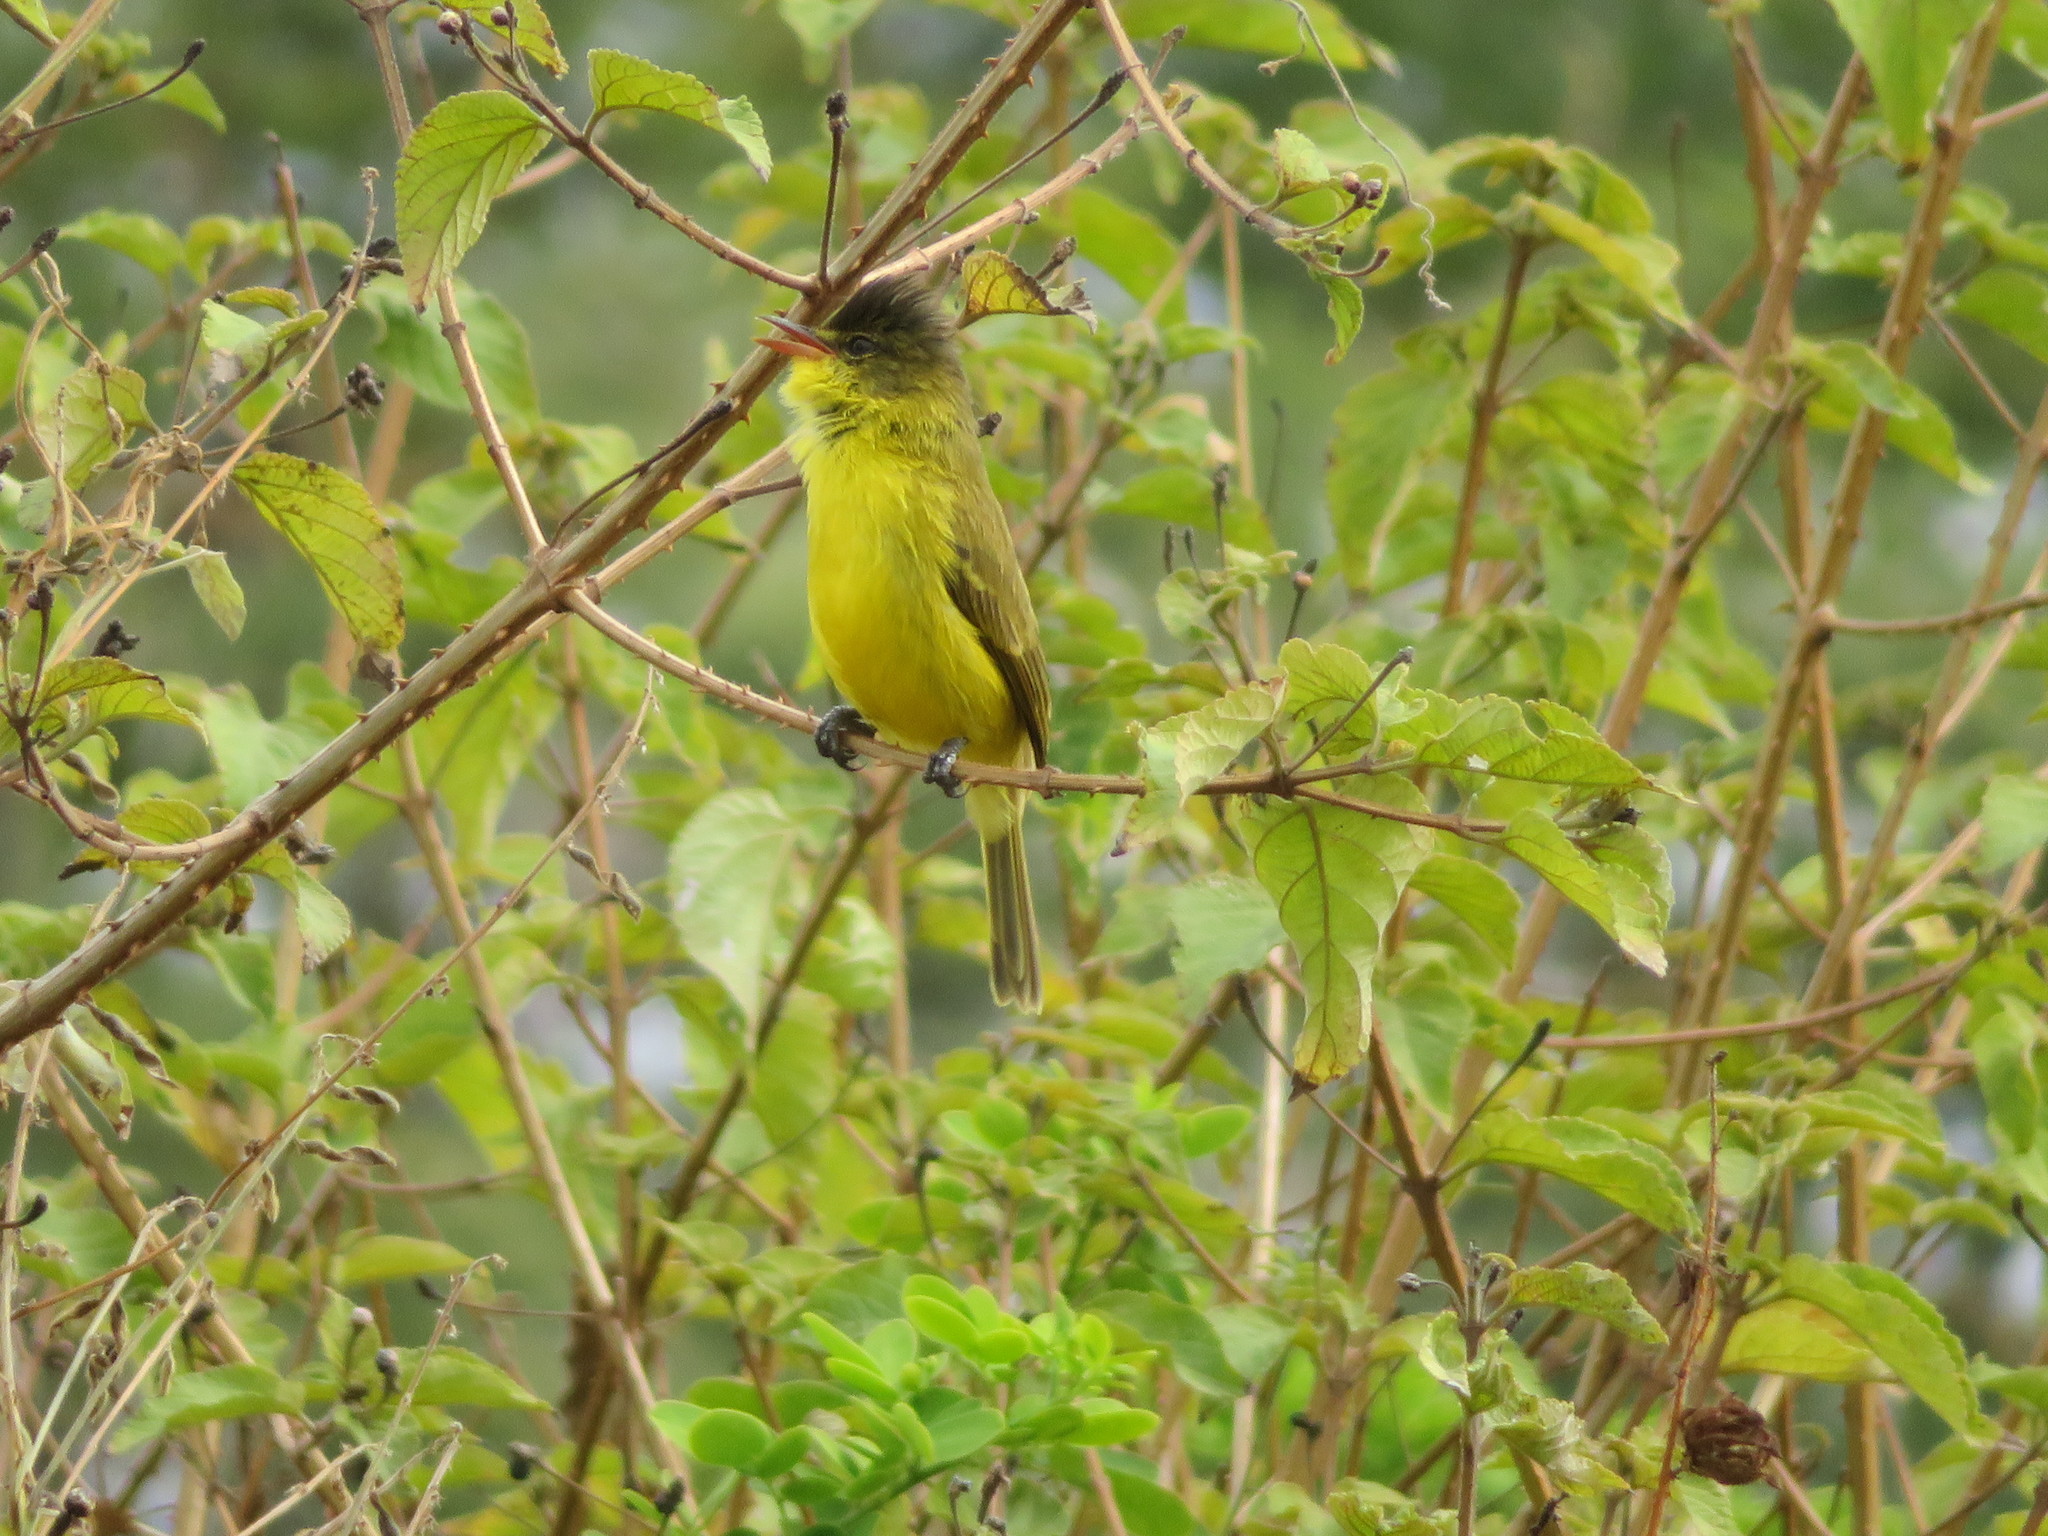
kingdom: Animalia
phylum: Chordata
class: Aves
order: Passeriformes
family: Acrocephalidae
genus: Iduna
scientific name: Iduna natalensis
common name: African yellow warbler
